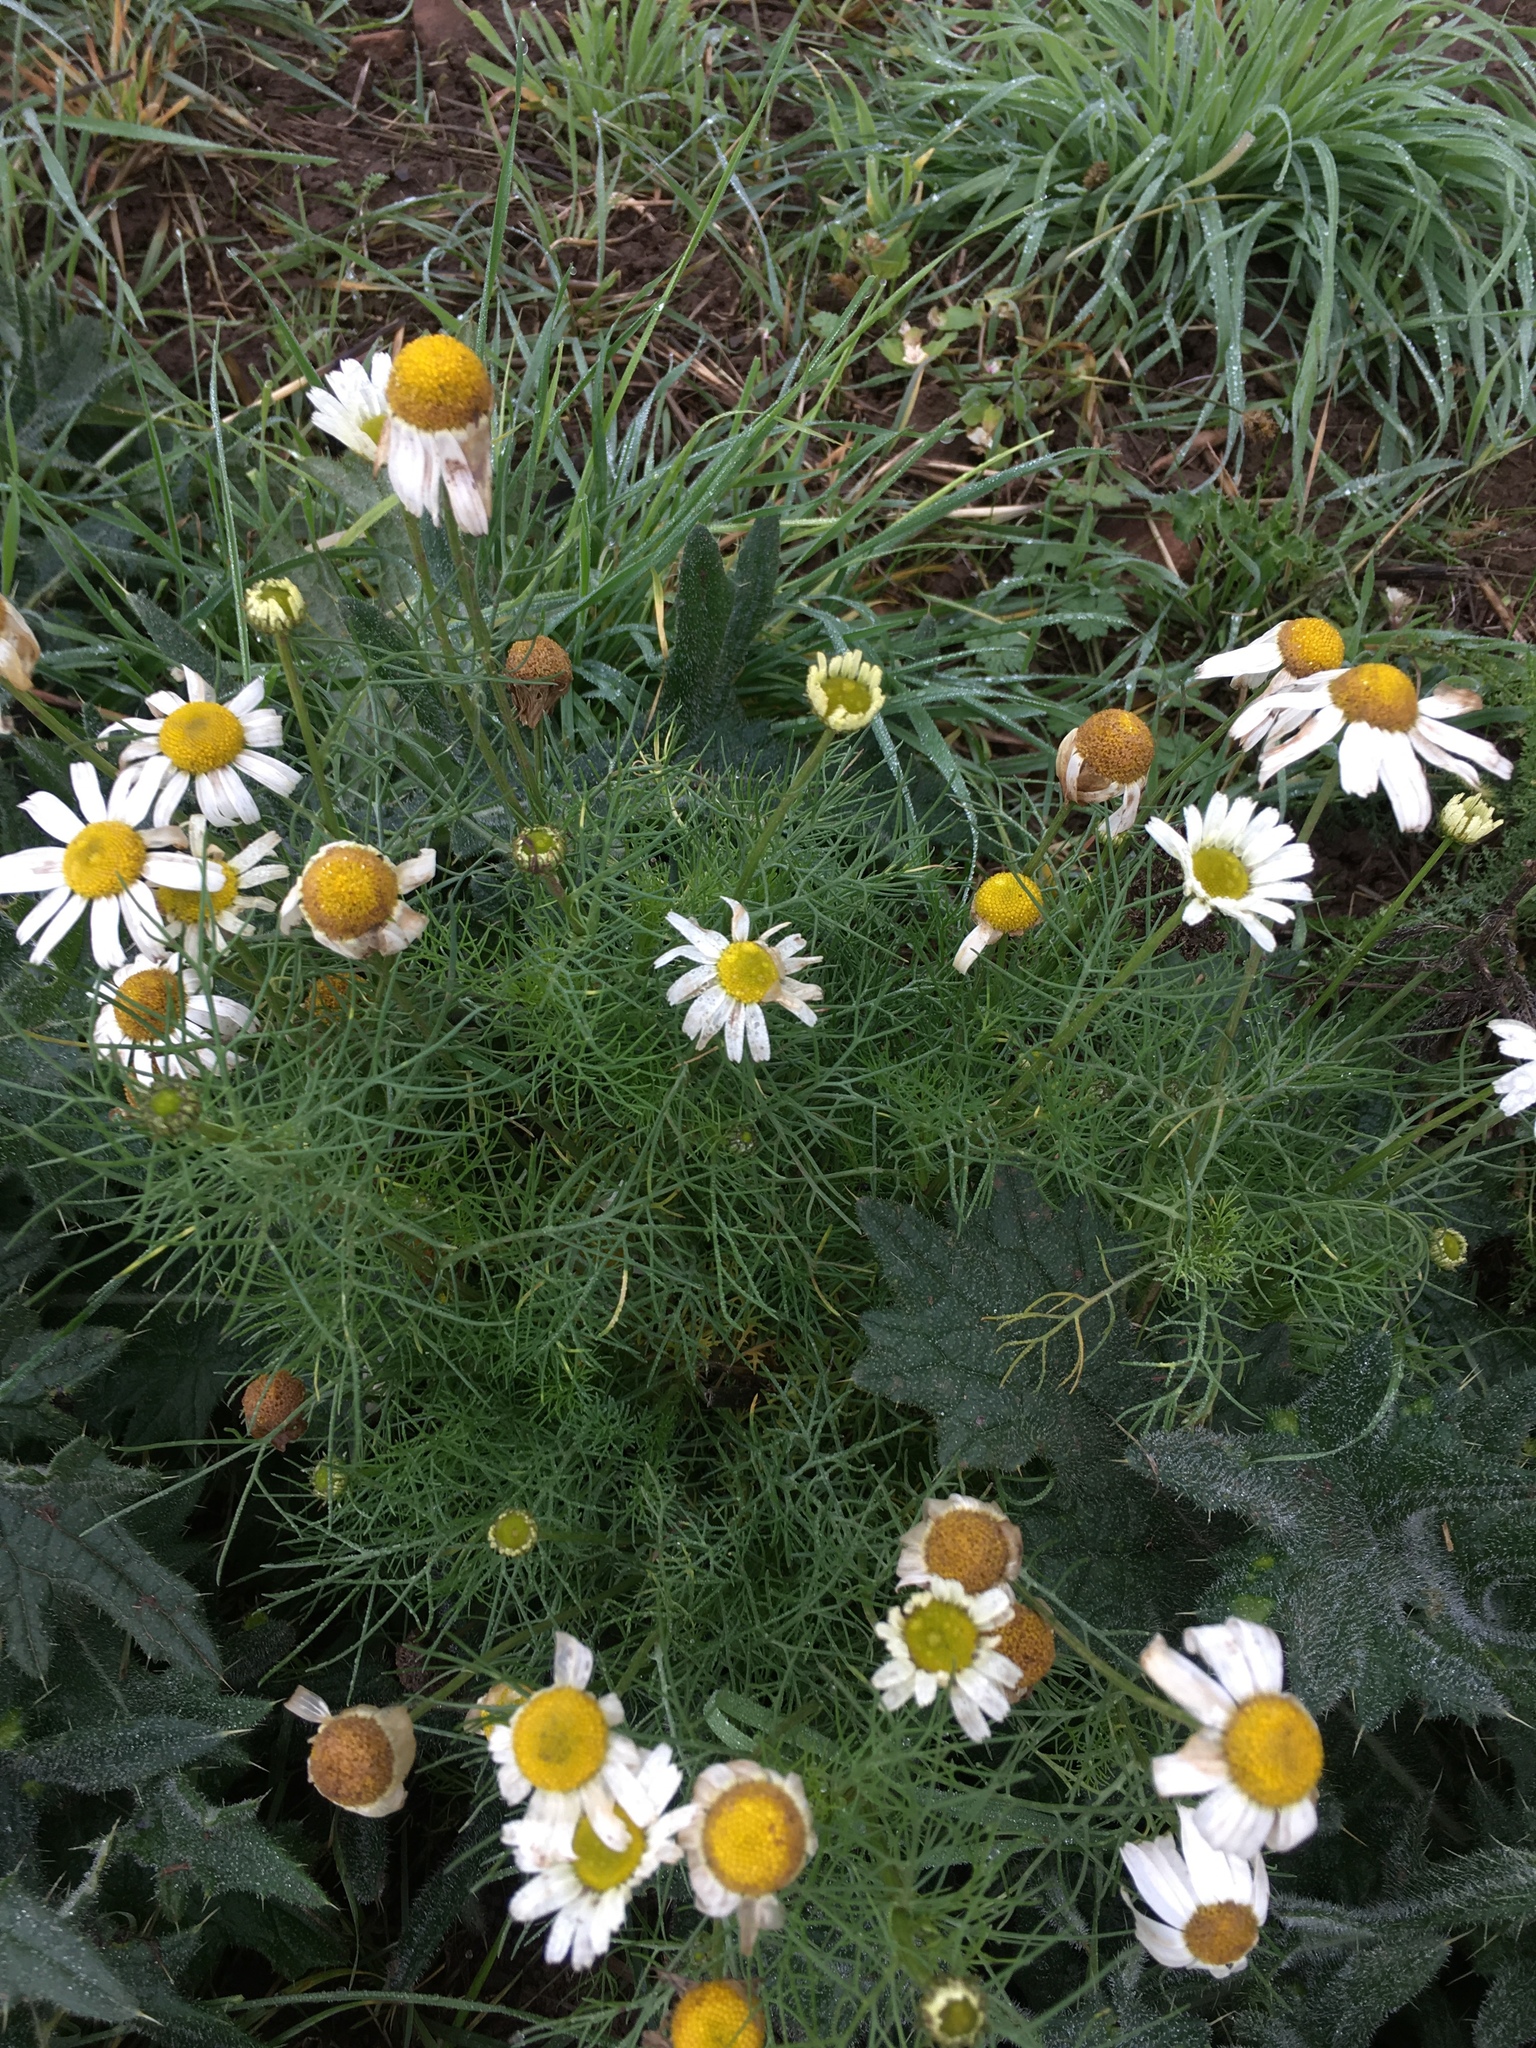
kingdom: Plantae
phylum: Tracheophyta
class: Magnoliopsida
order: Asterales
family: Asteraceae
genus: Tripleurospermum
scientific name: Tripleurospermum inodorum
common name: Scentless mayweed
